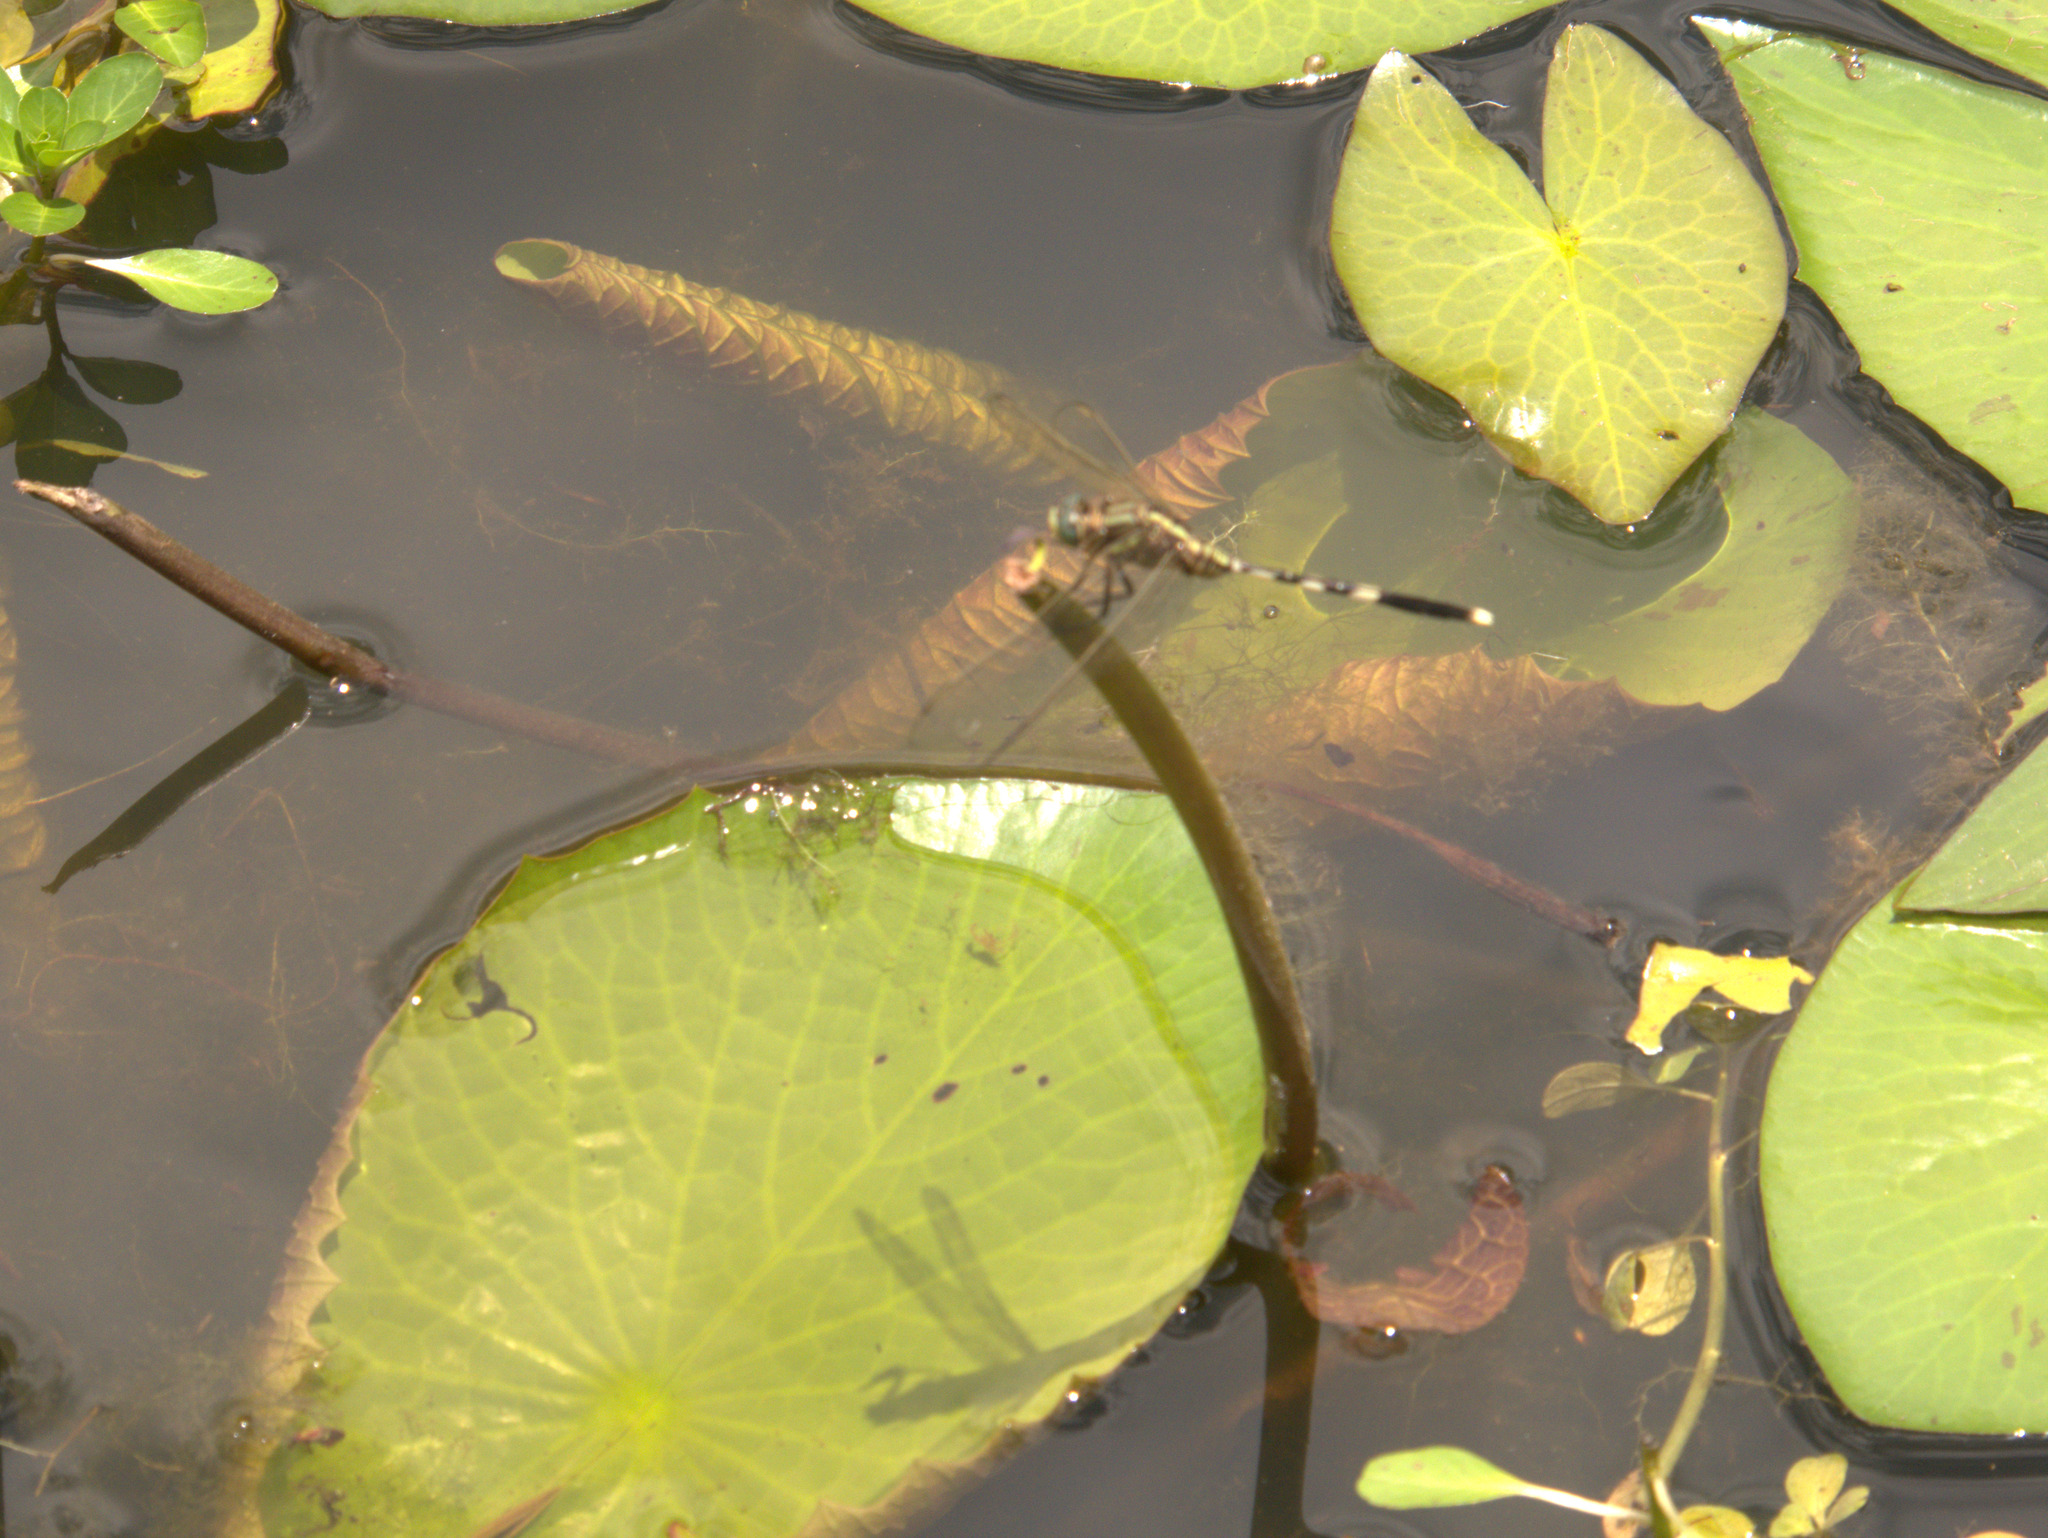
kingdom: Animalia
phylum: Arthropoda
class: Insecta
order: Odonata
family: Libellulidae
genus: Orthetrum
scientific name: Orthetrum sabina
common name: Slender skimmer
